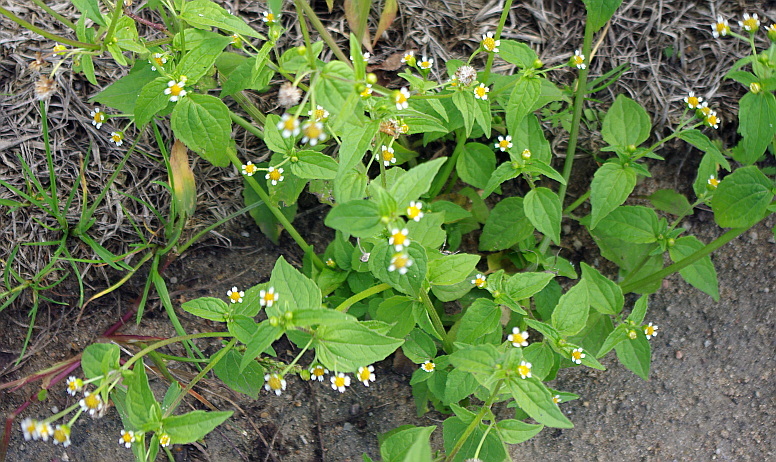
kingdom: Plantae
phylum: Tracheophyta
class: Magnoliopsida
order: Asterales
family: Asteraceae
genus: Galinsoga
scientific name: Galinsoga quadriradiata
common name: Shaggy soldier
